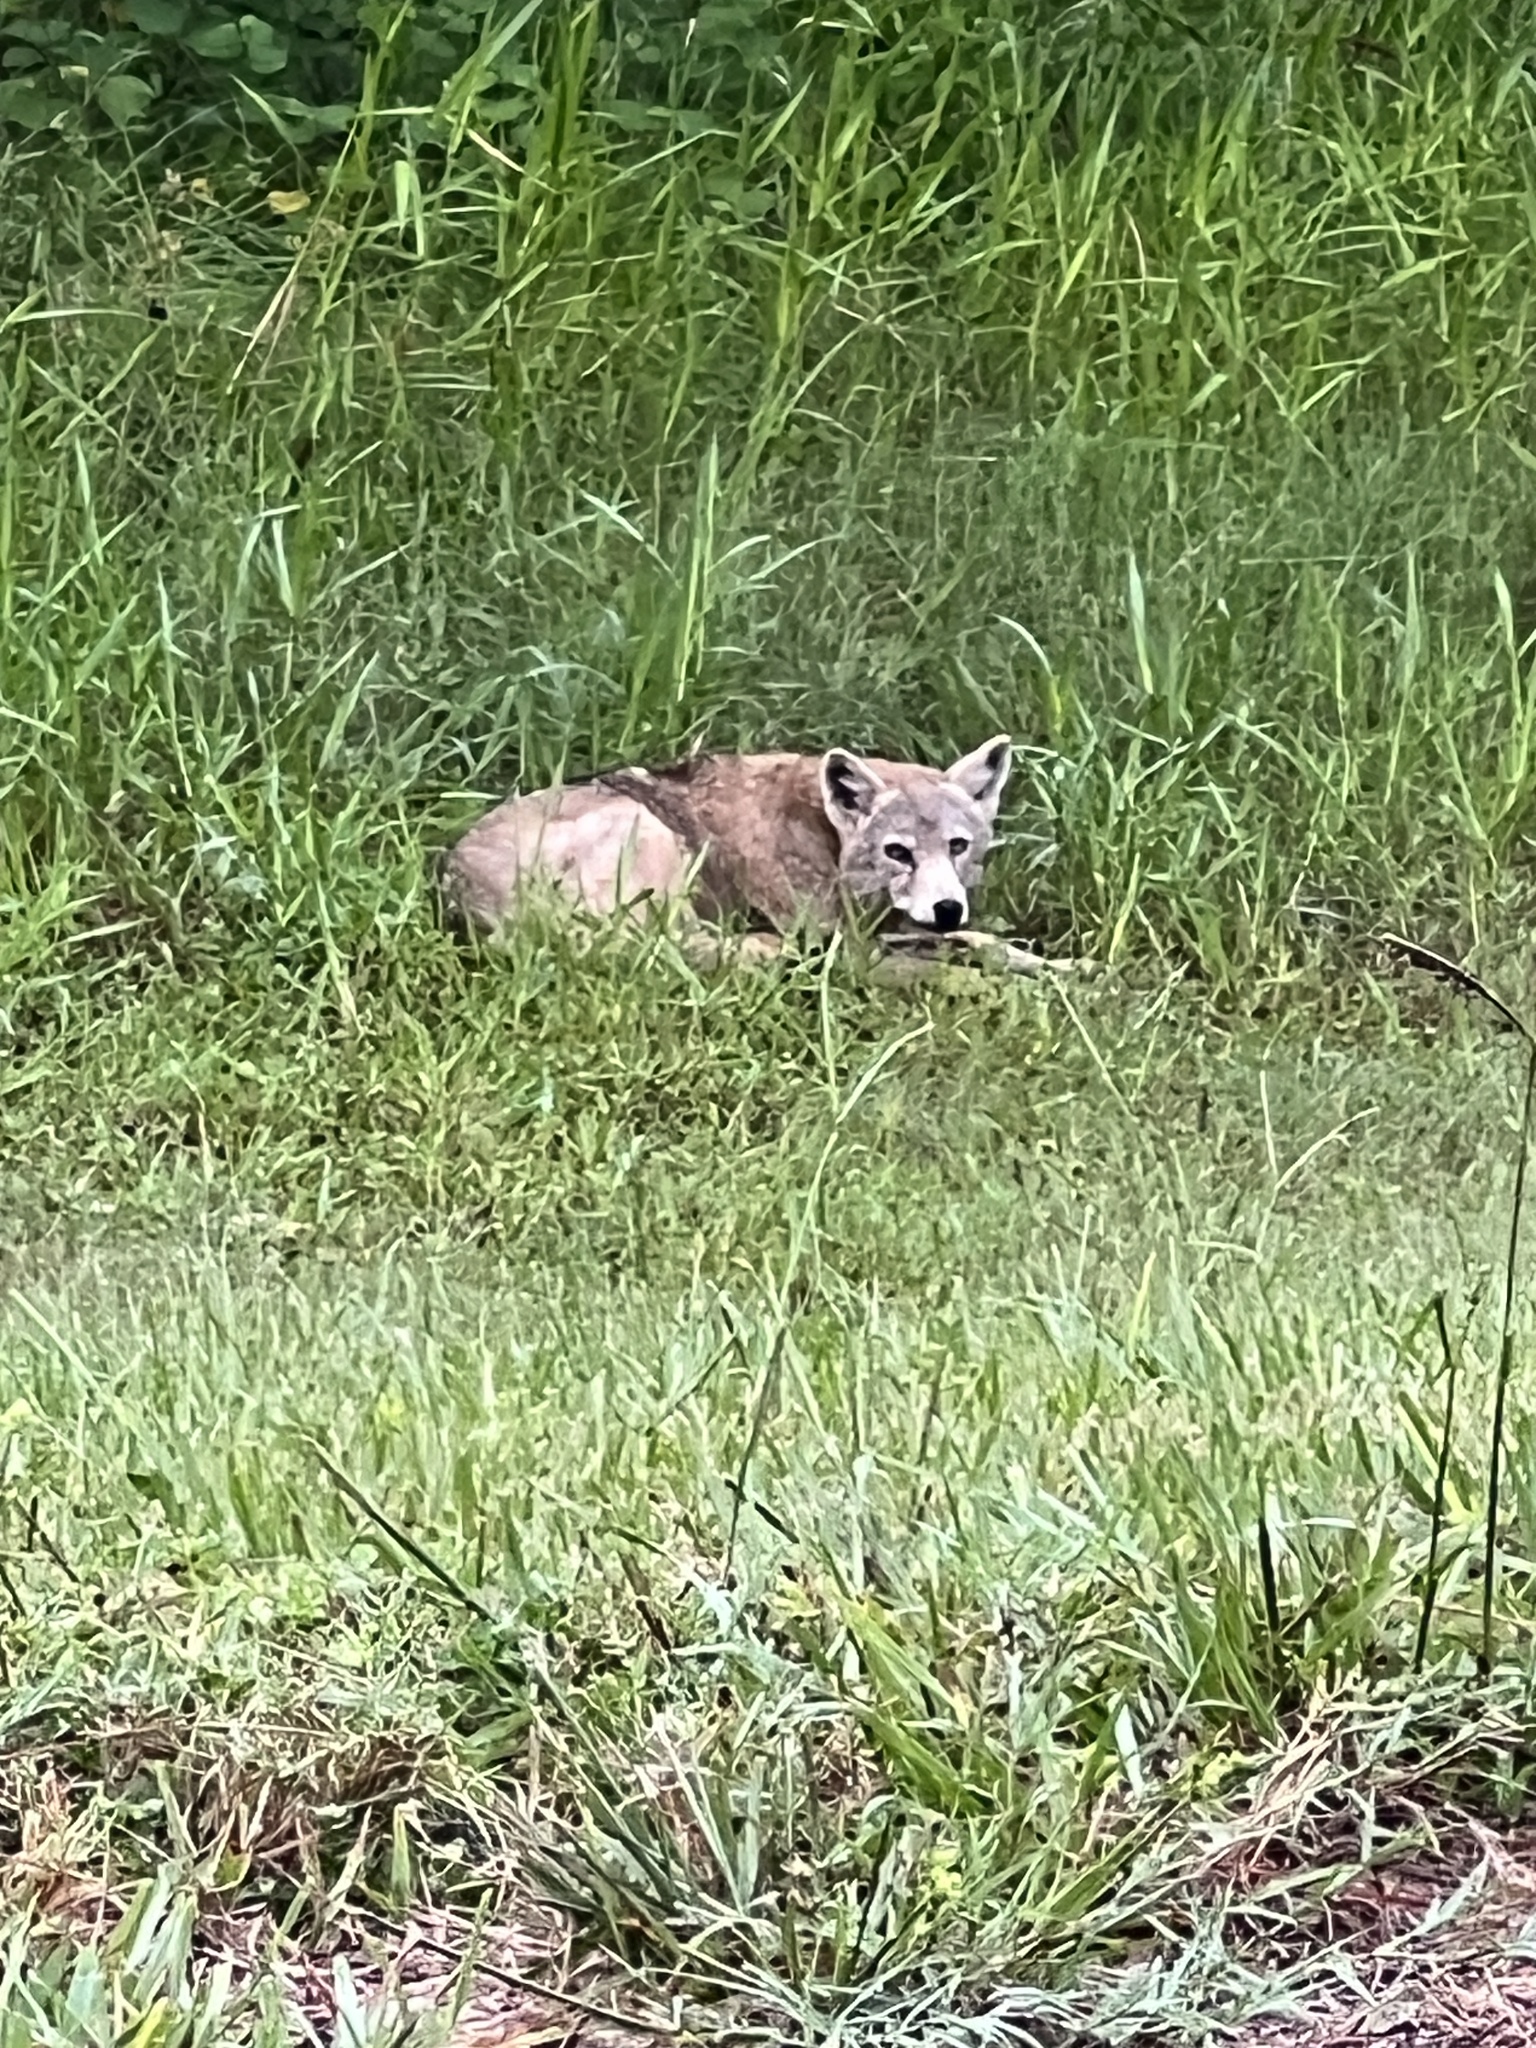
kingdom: Animalia
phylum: Chordata
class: Mammalia
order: Carnivora
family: Canidae
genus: Canis
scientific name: Canis latrans
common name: Coyote
